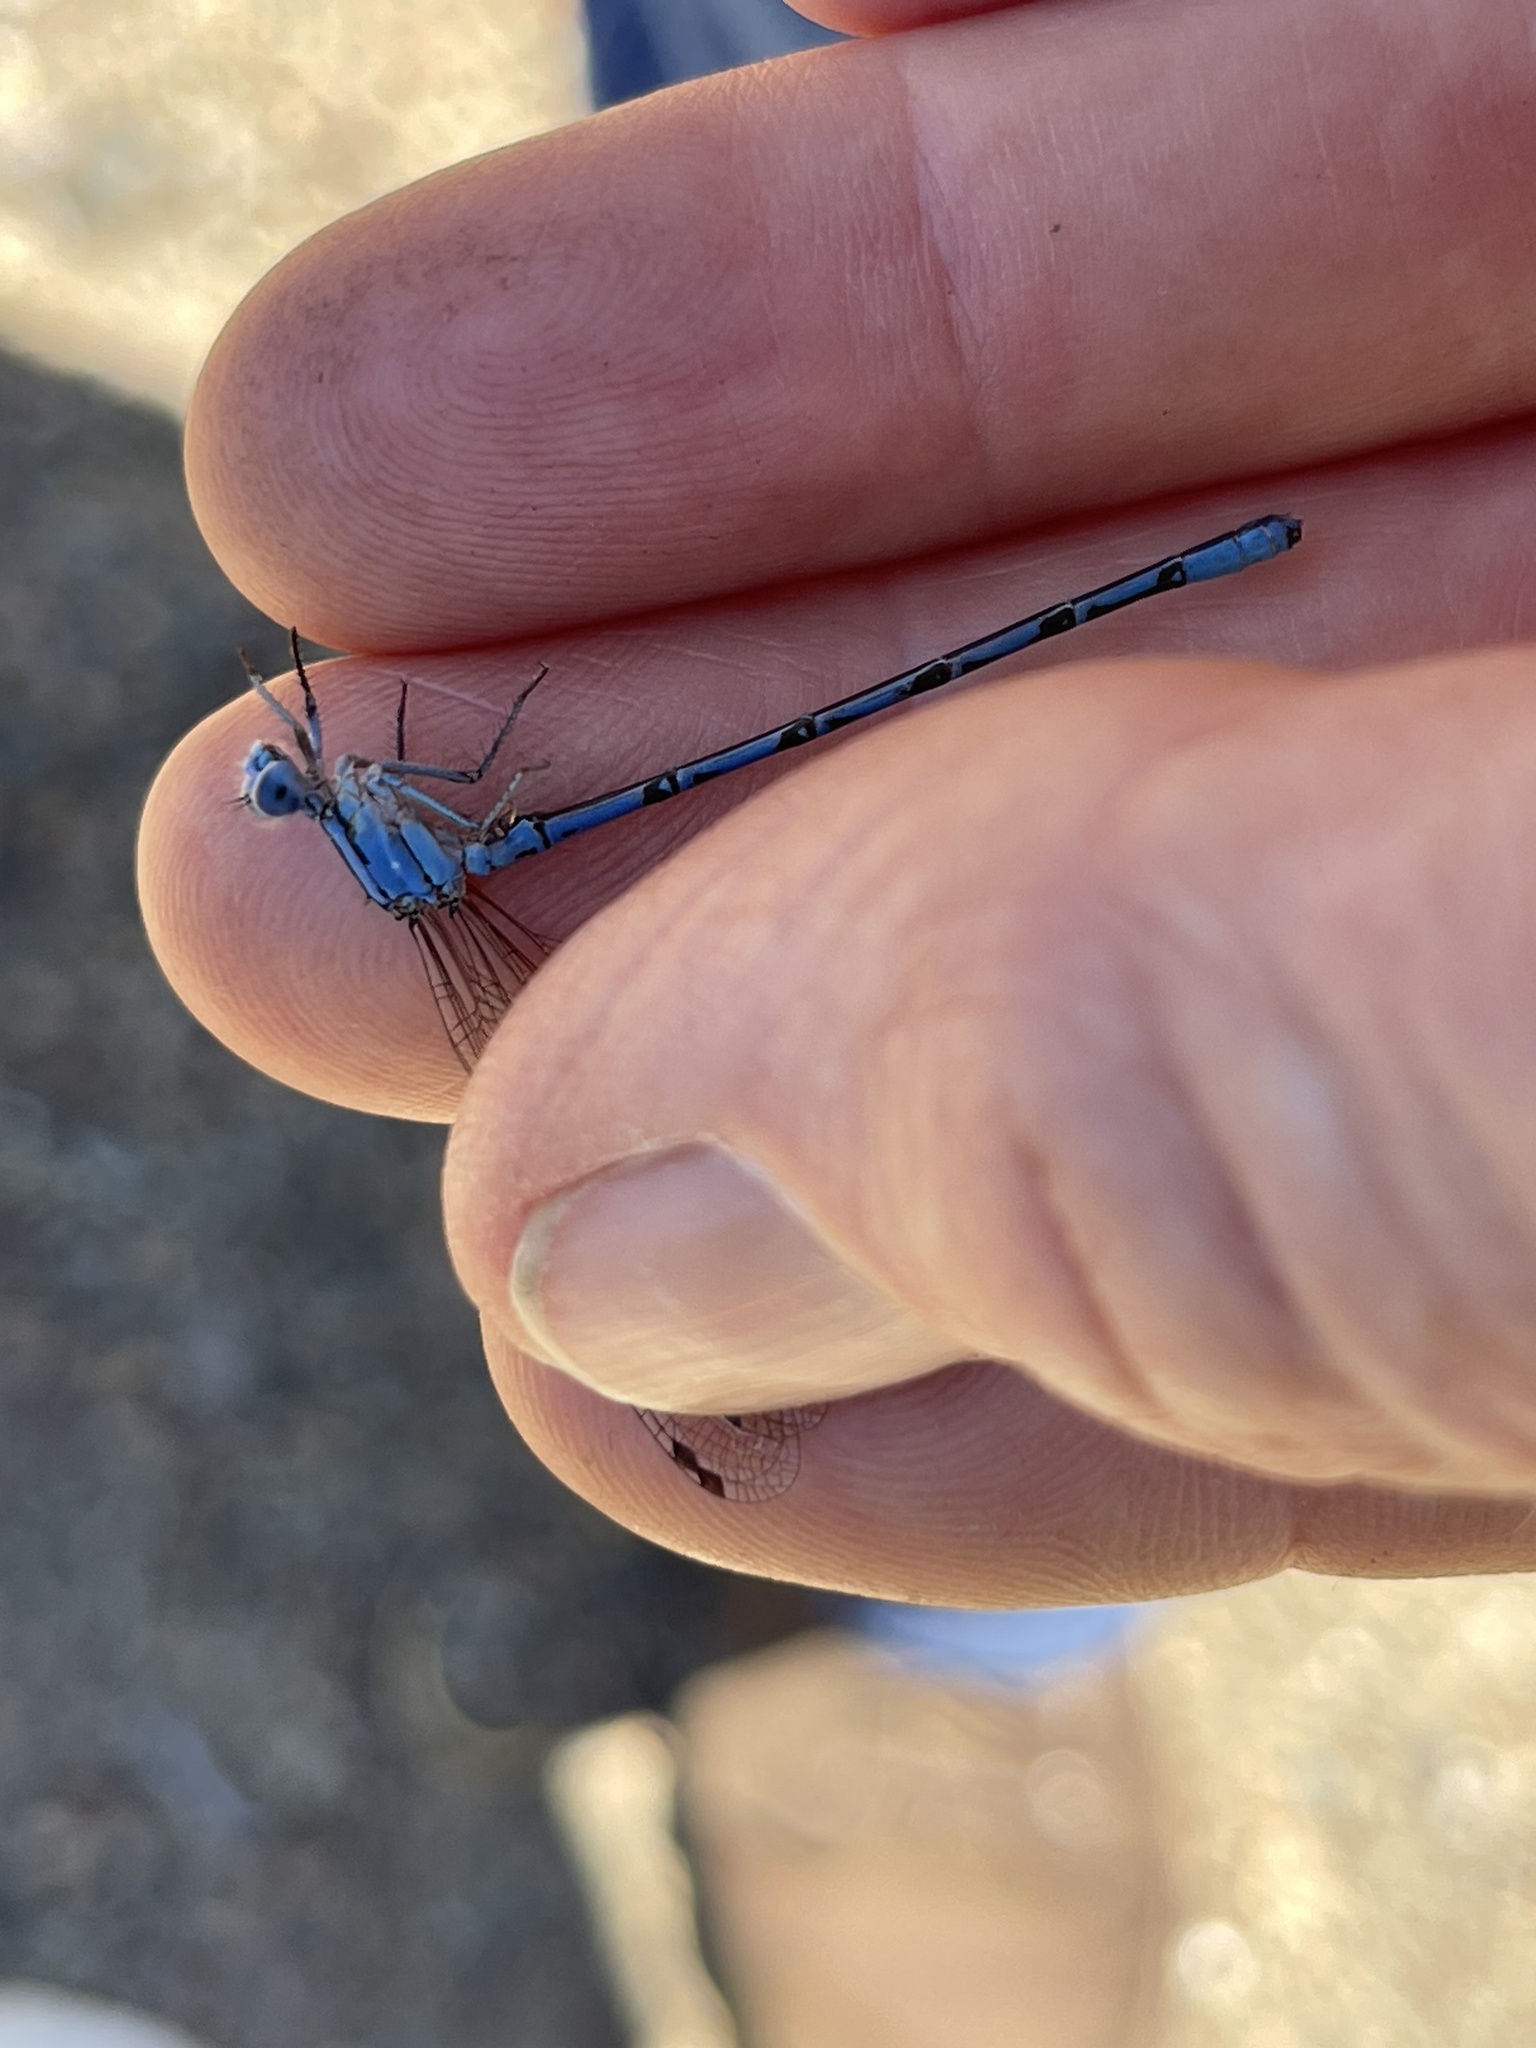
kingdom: Animalia
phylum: Arthropoda
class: Insecta
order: Odonata
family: Coenagrionidae
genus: Argia
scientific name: Argia vivida
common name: Vivid dancer
